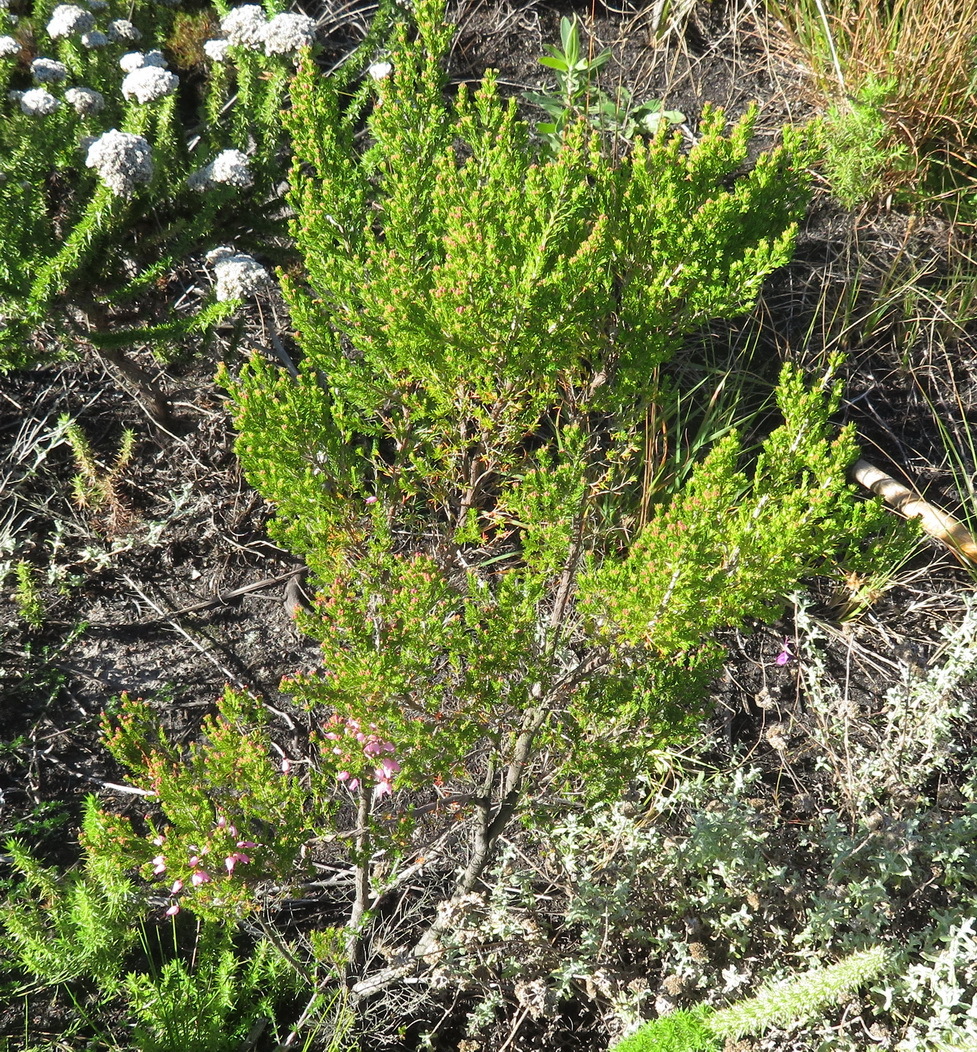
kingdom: Plantae
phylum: Tracheophyta
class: Magnoliopsida
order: Ericales
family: Ericaceae
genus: Erica
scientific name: Erica nutans
